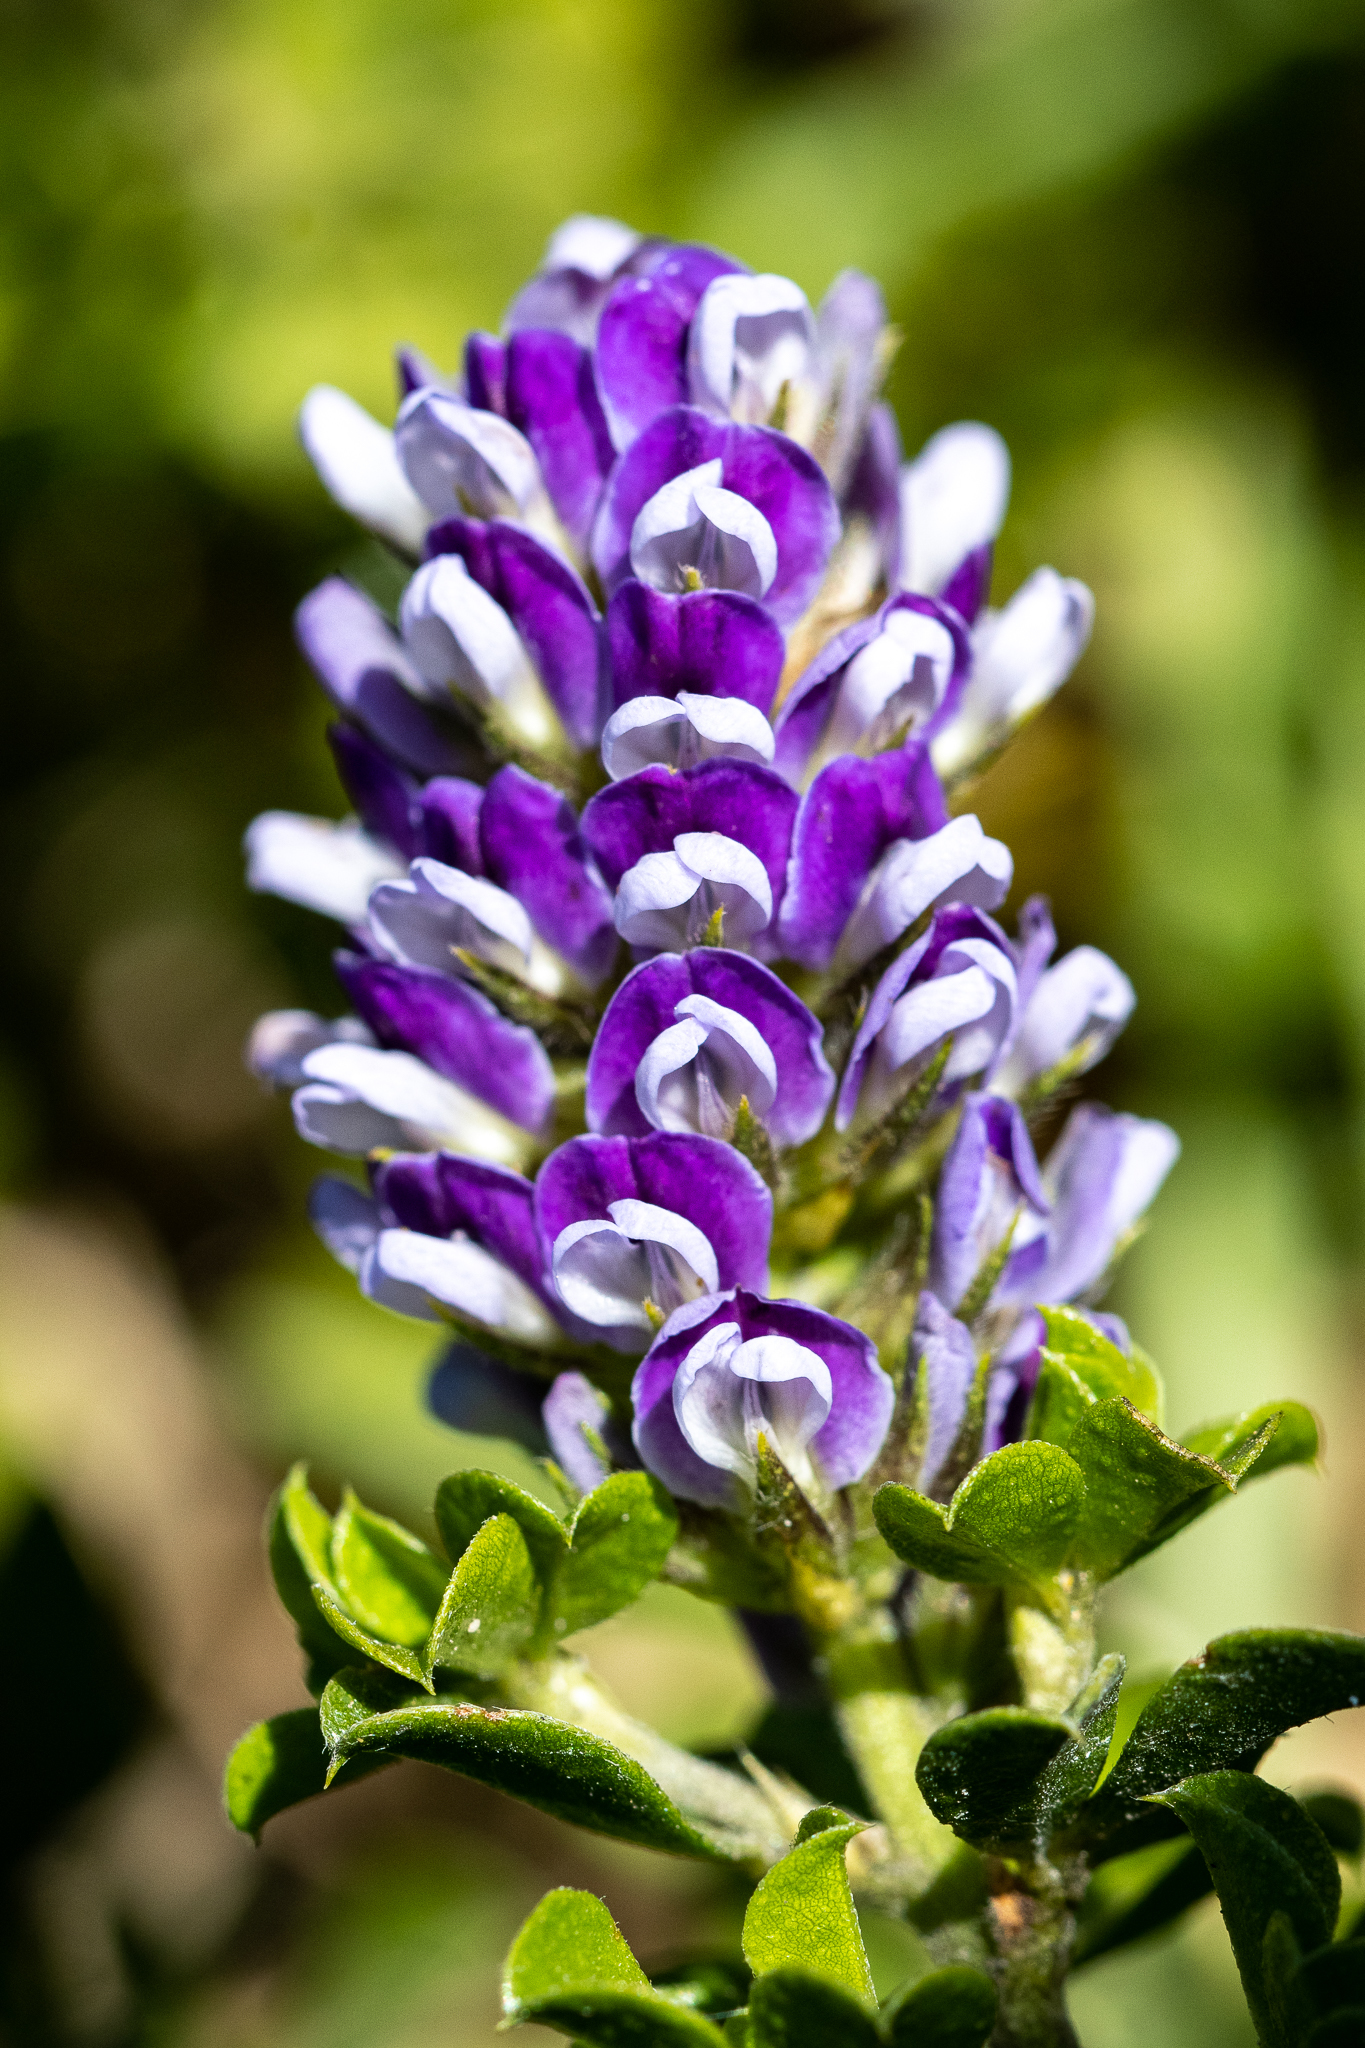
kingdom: Plantae
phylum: Tracheophyta
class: Magnoliopsida
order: Fabales
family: Fabaceae
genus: Psoralea
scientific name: Psoralea bracteolata
